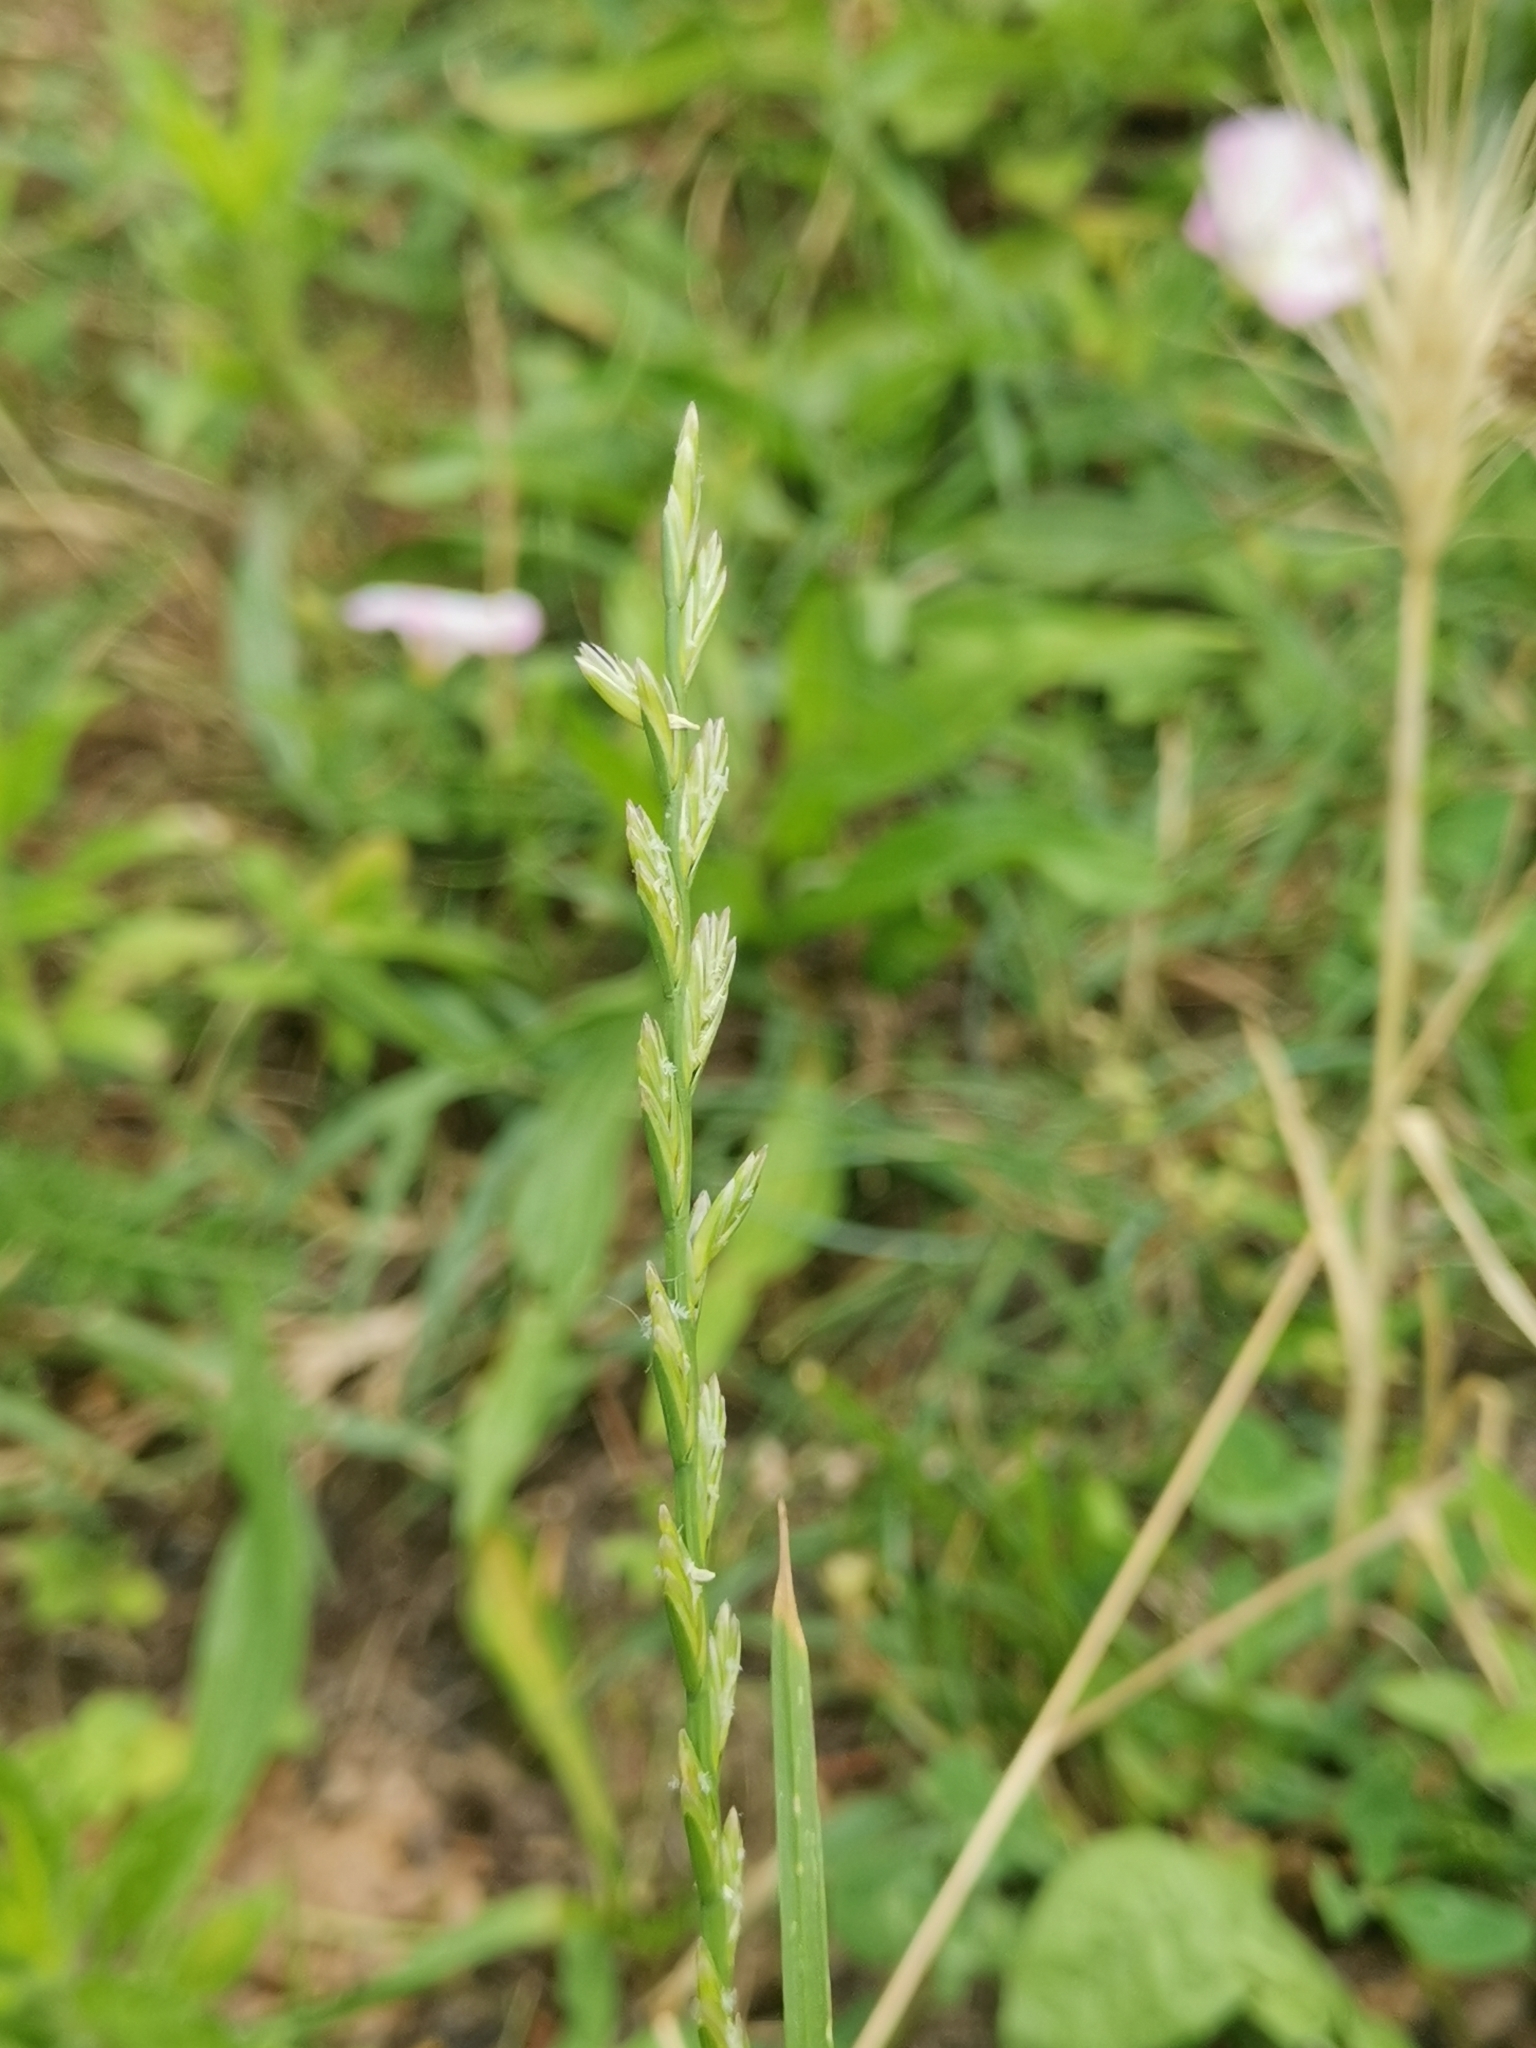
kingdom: Plantae
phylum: Tracheophyta
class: Liliopsida
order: Poales
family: Poaceae
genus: Lolium
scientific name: Lolium perenne
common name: Perennial ryegrass
